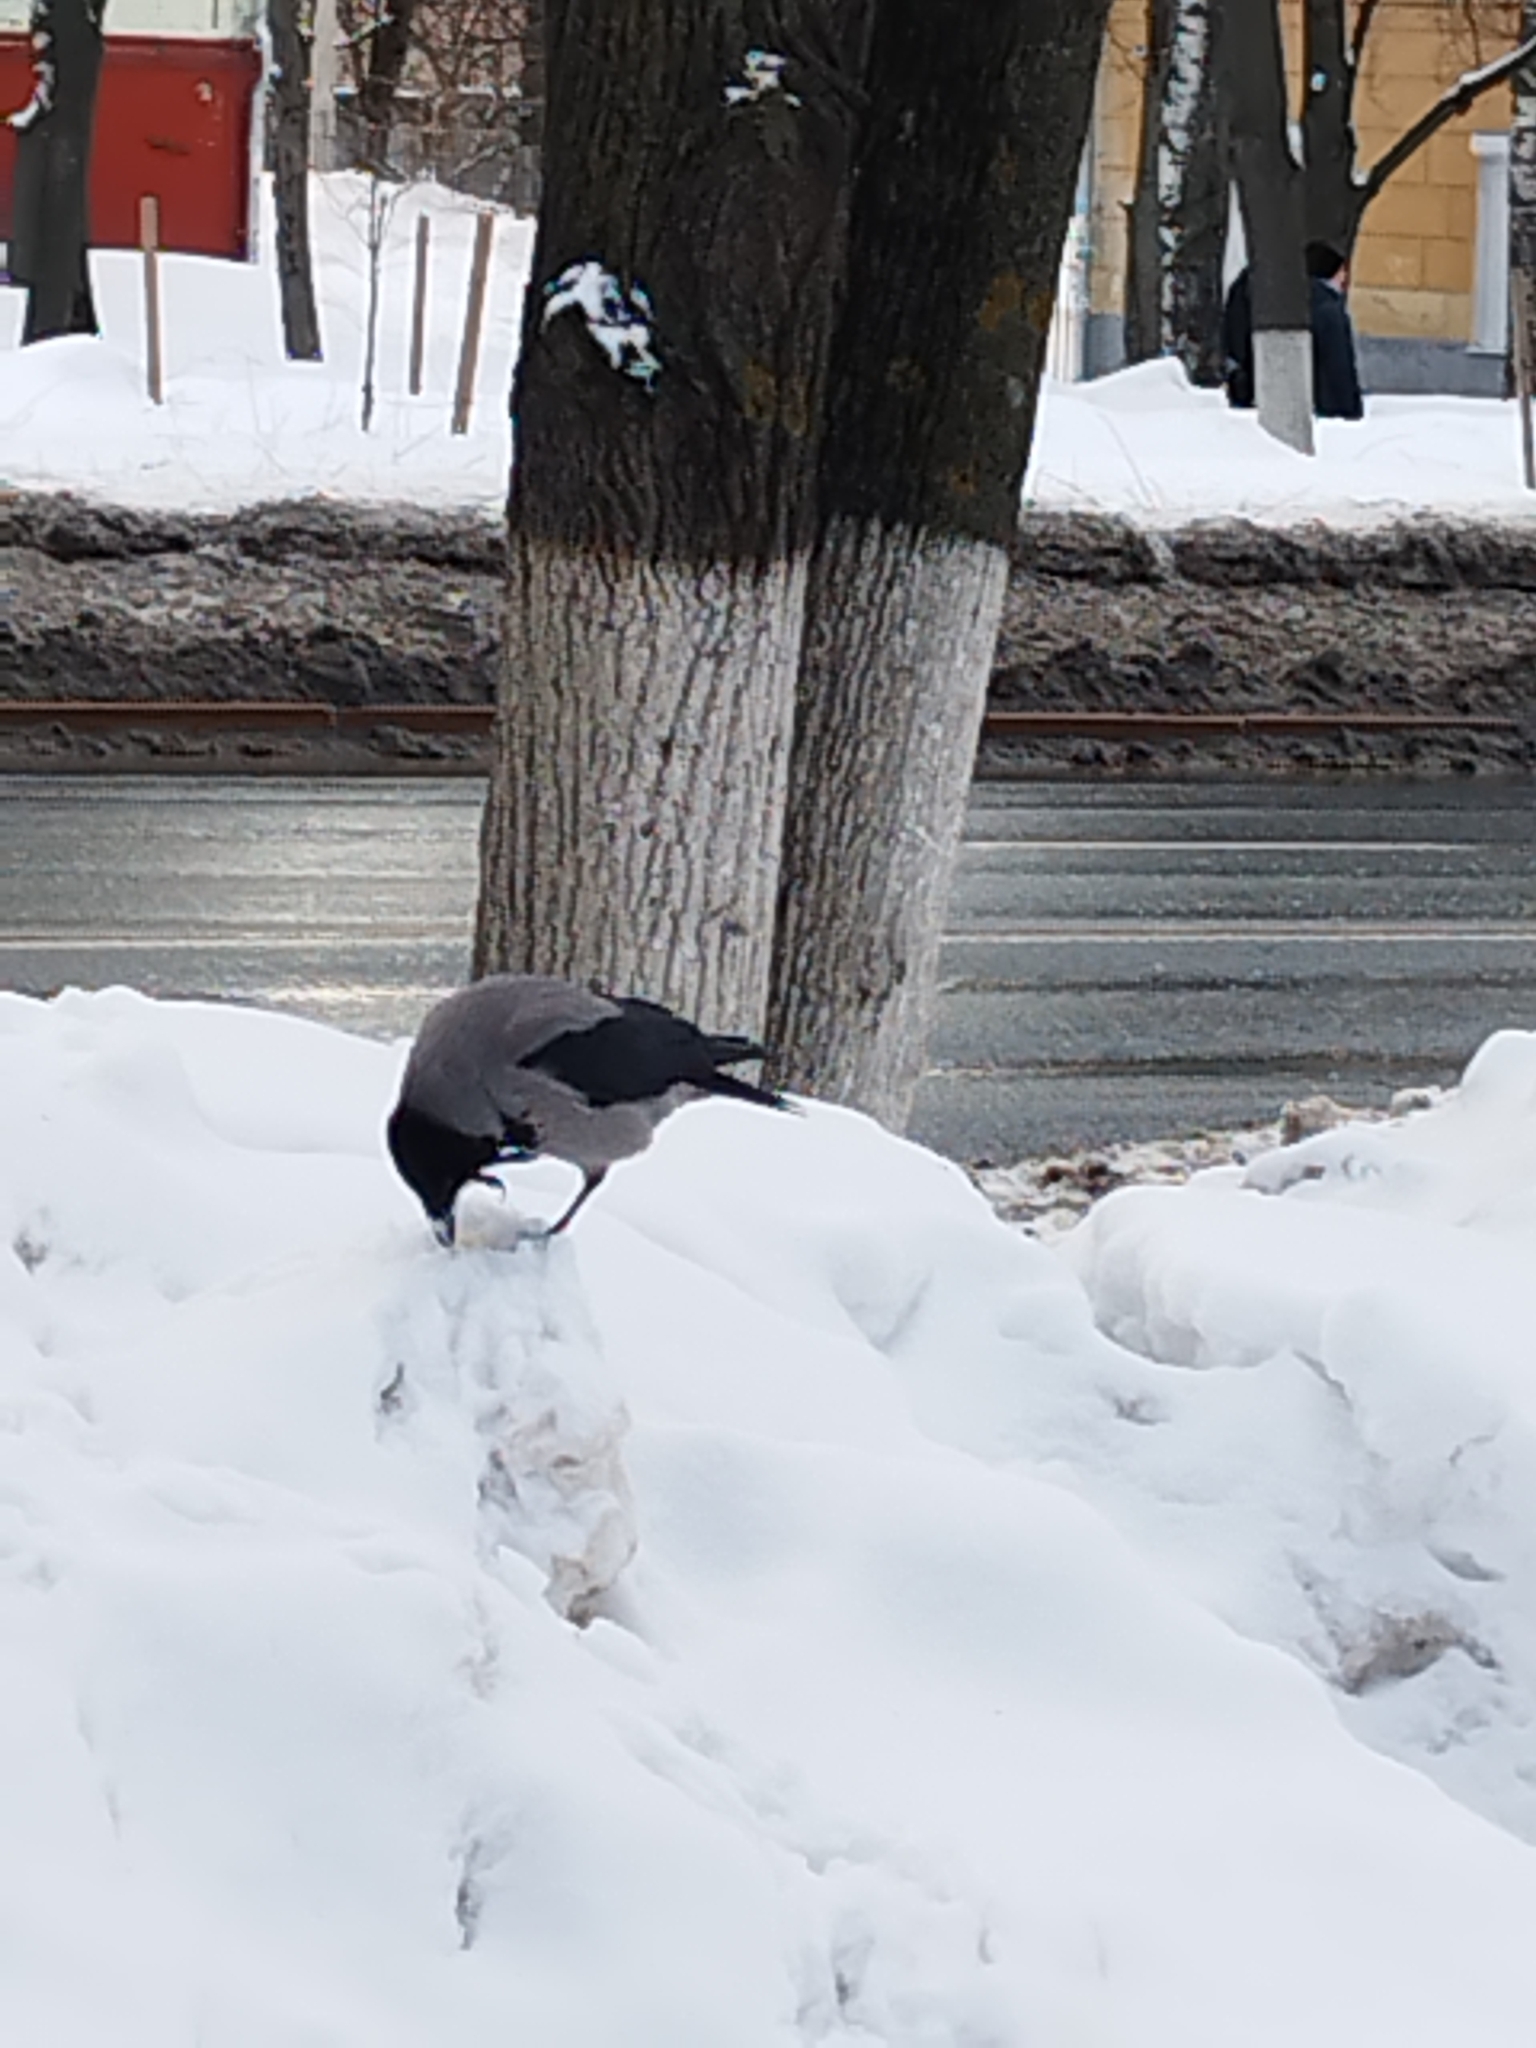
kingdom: Animalia
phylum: Chordata
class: Aves
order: Passeriformes
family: Corvidae
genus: Corvus
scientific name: Corvus cornix
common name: Hooded crow
